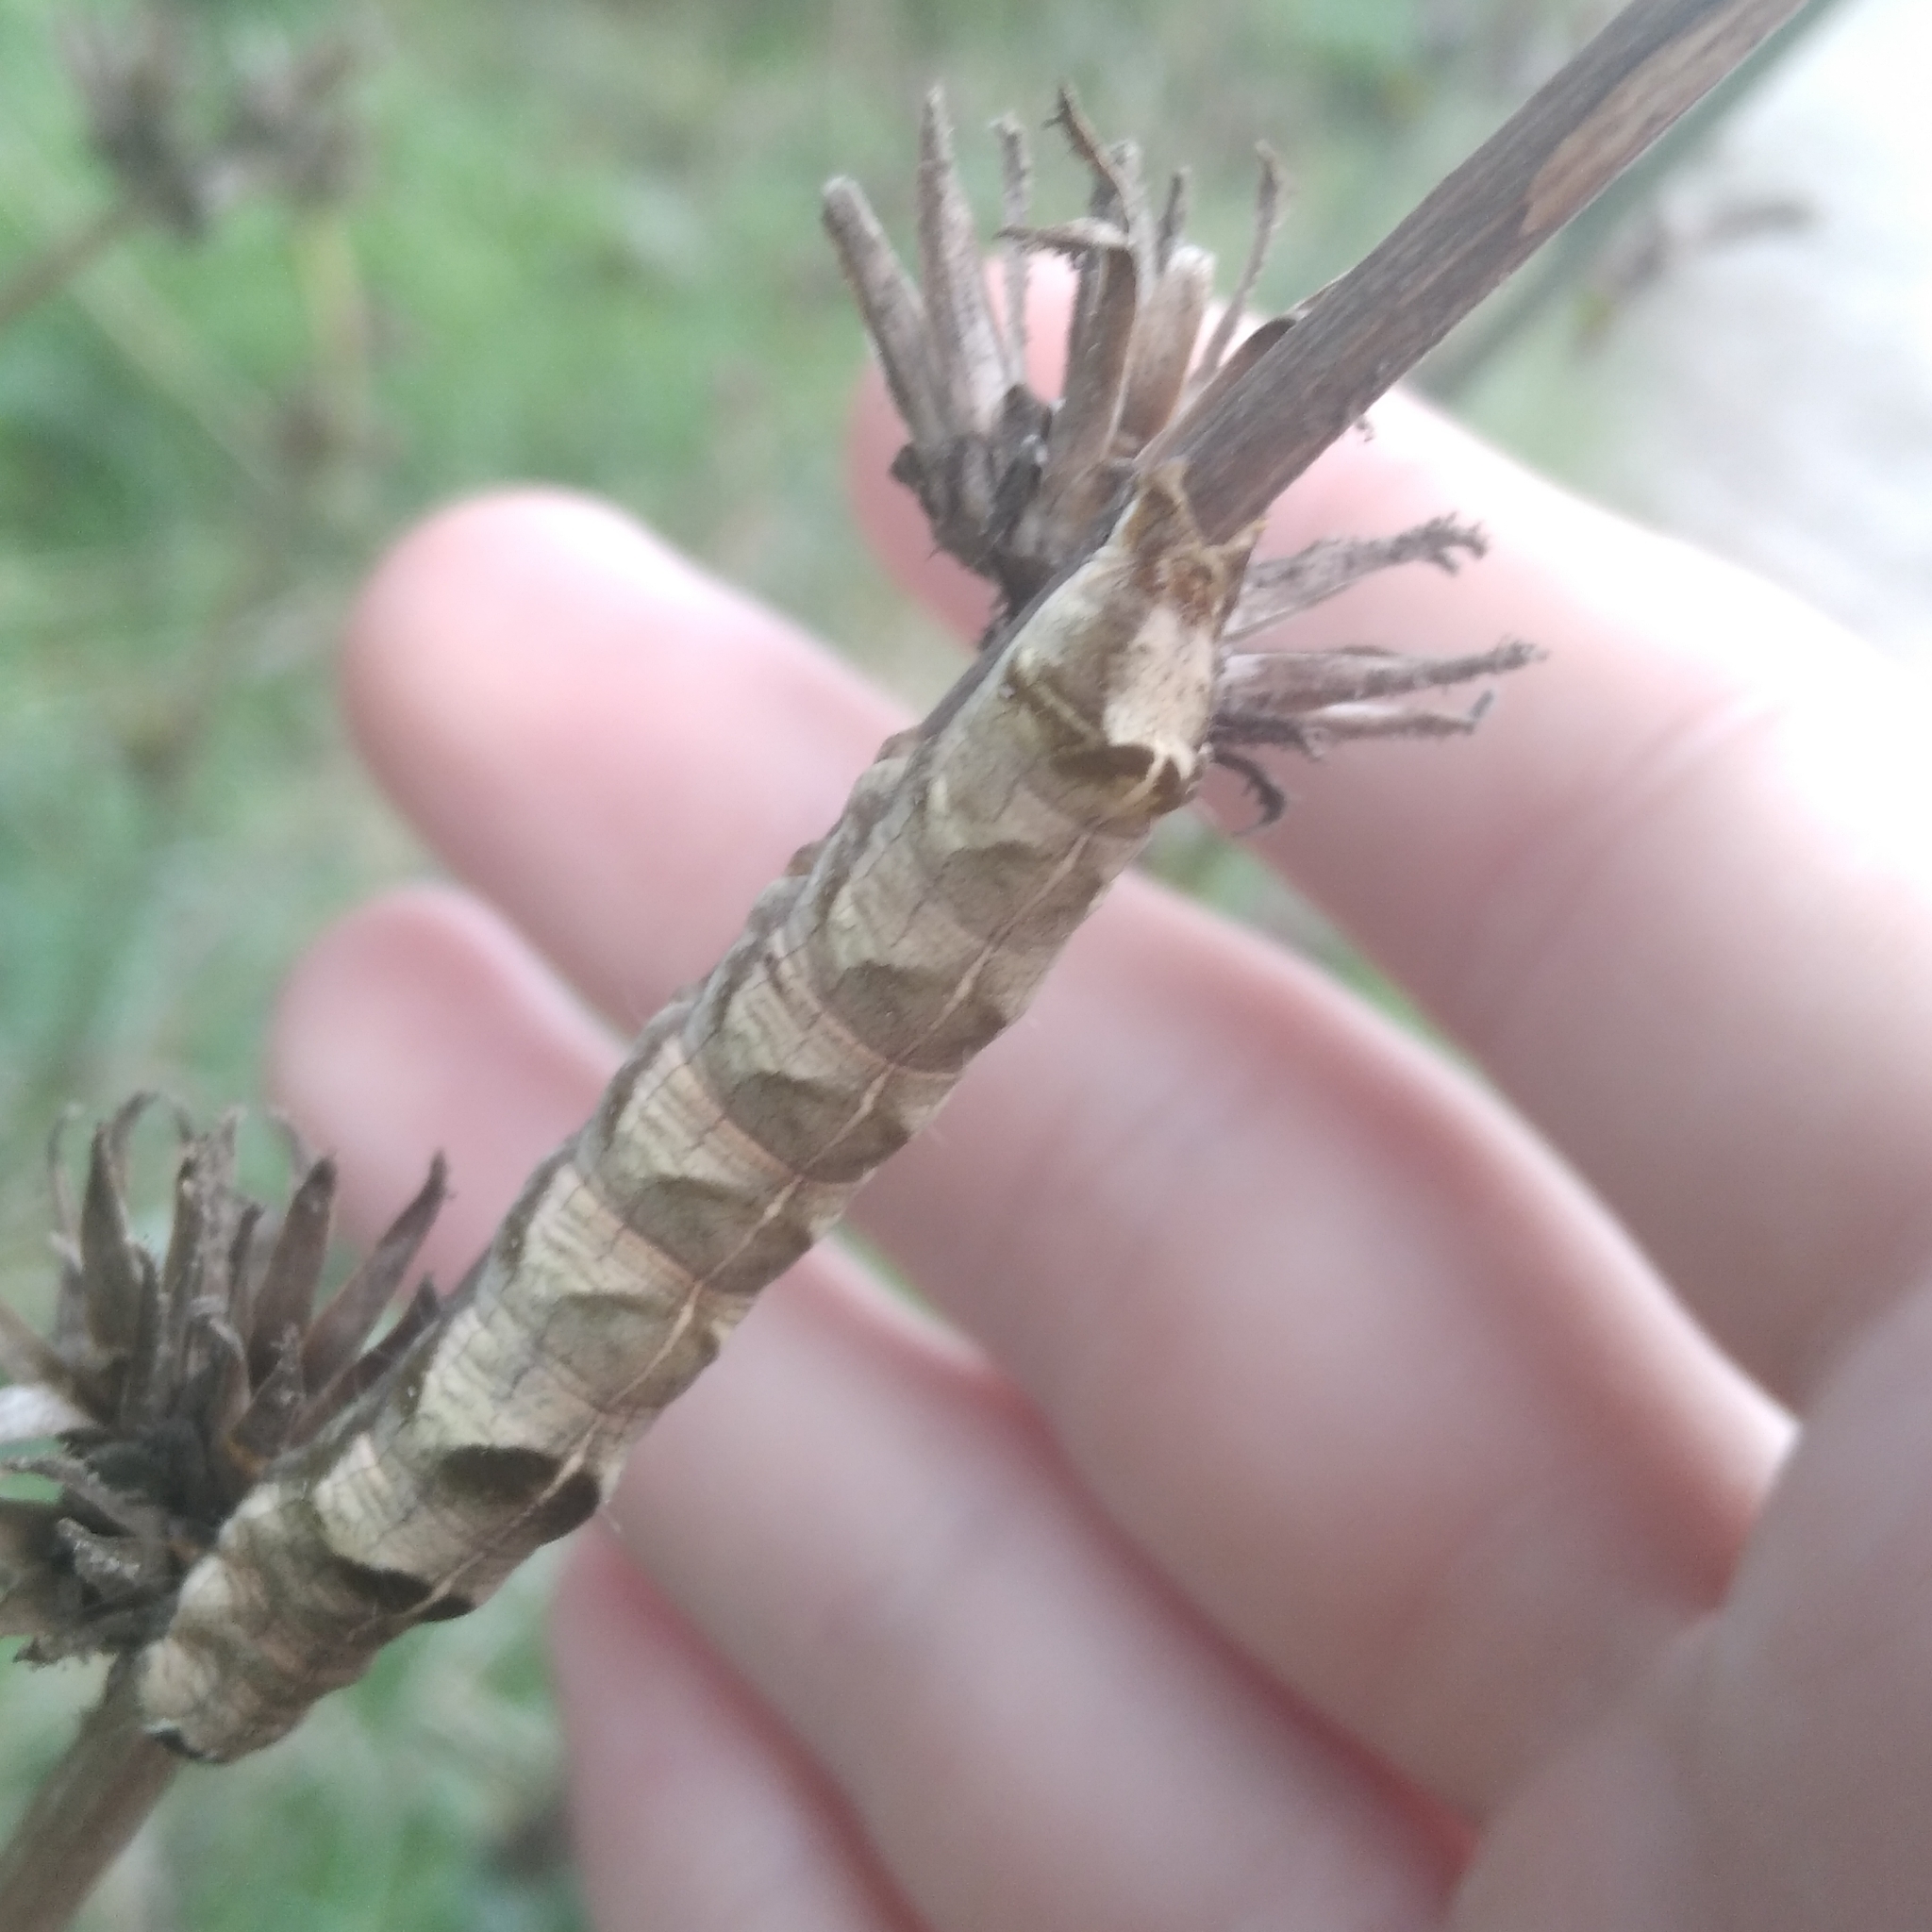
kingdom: Animalia
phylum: Arthropoda
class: Insecta
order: Lepidoptera
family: Noctuidae
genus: Melanchra
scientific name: Melanchra persicariae
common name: Dot moth
